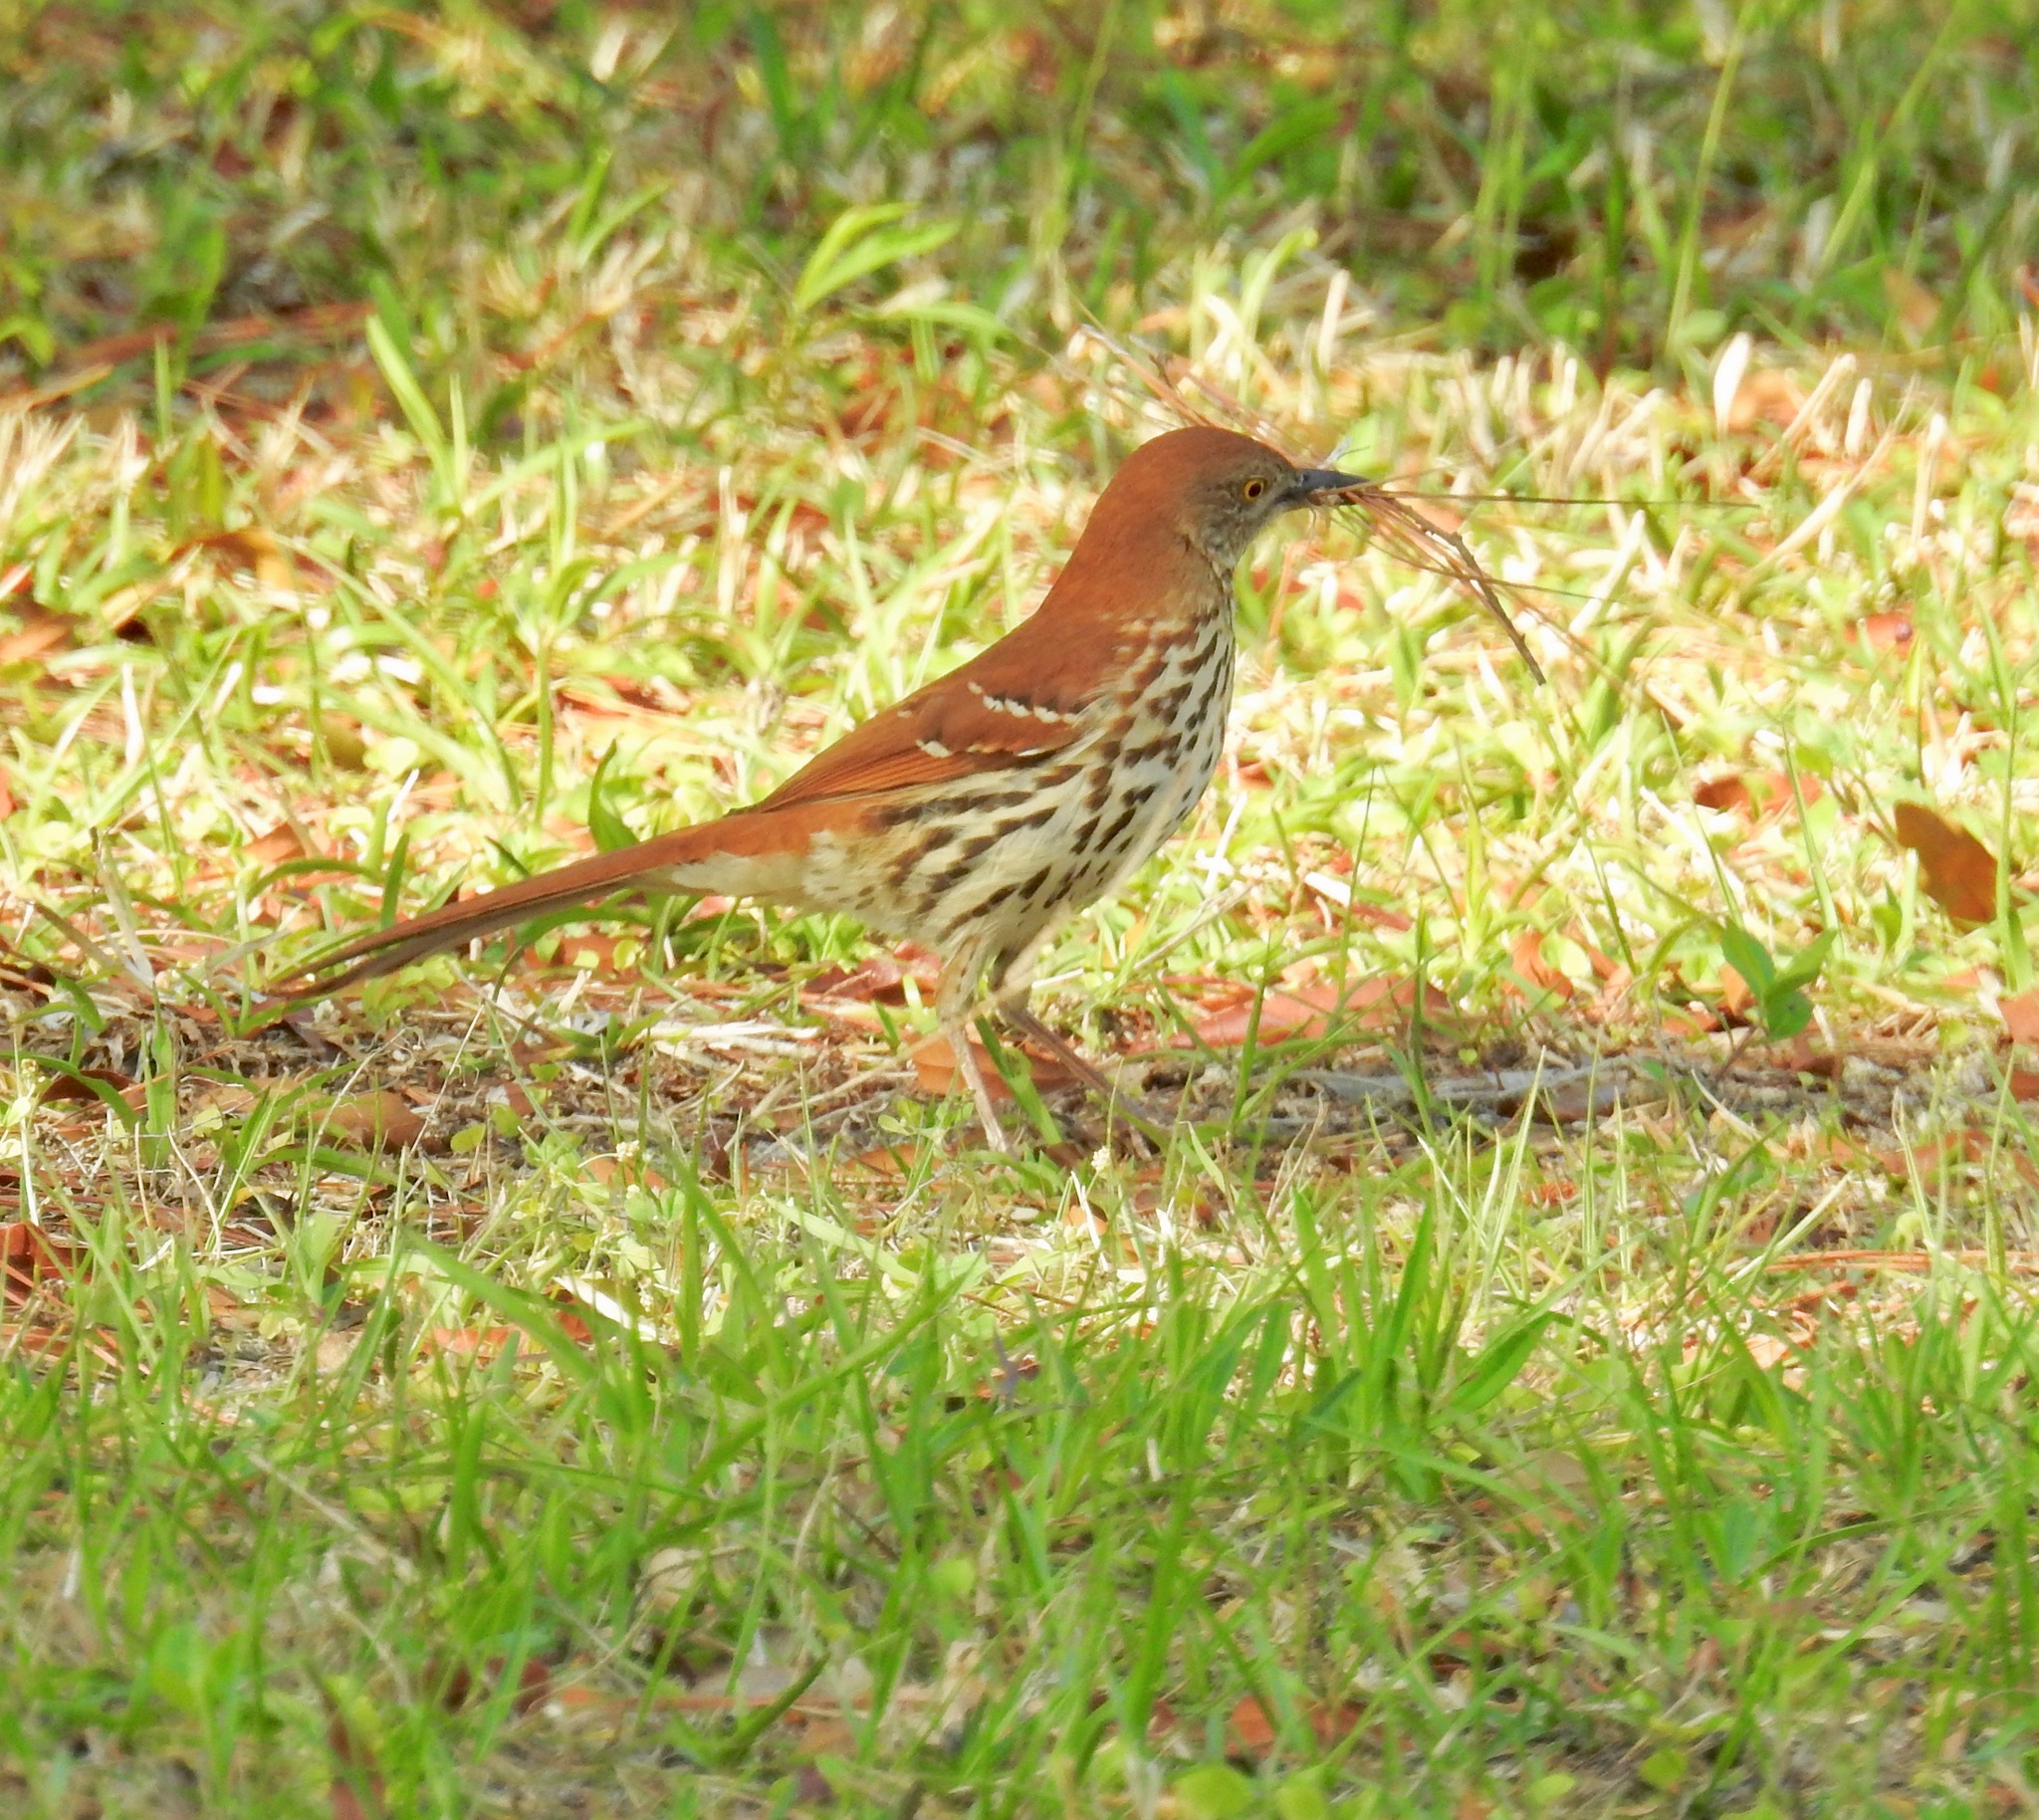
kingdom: Animalia
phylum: Chordata
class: Aves
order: Passeriformes
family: Mimidae
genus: Toxostoma
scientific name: Toxostoma rufum
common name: Brown thrasher
